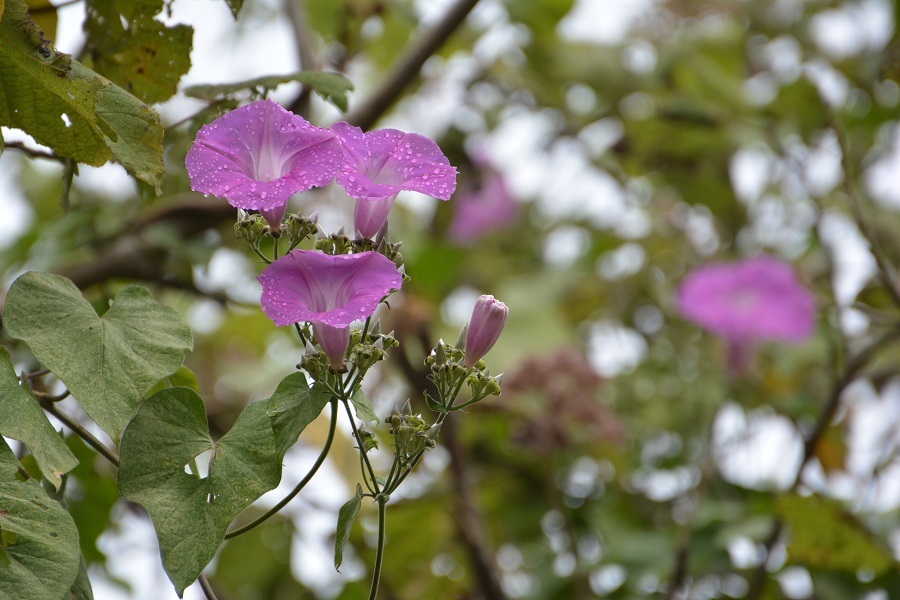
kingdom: Plantae
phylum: Tracheophyta
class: Magnoliopsida
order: Solanales
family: Convolvulaceae
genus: Ipomoea
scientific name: Ipomoea leucotricha
